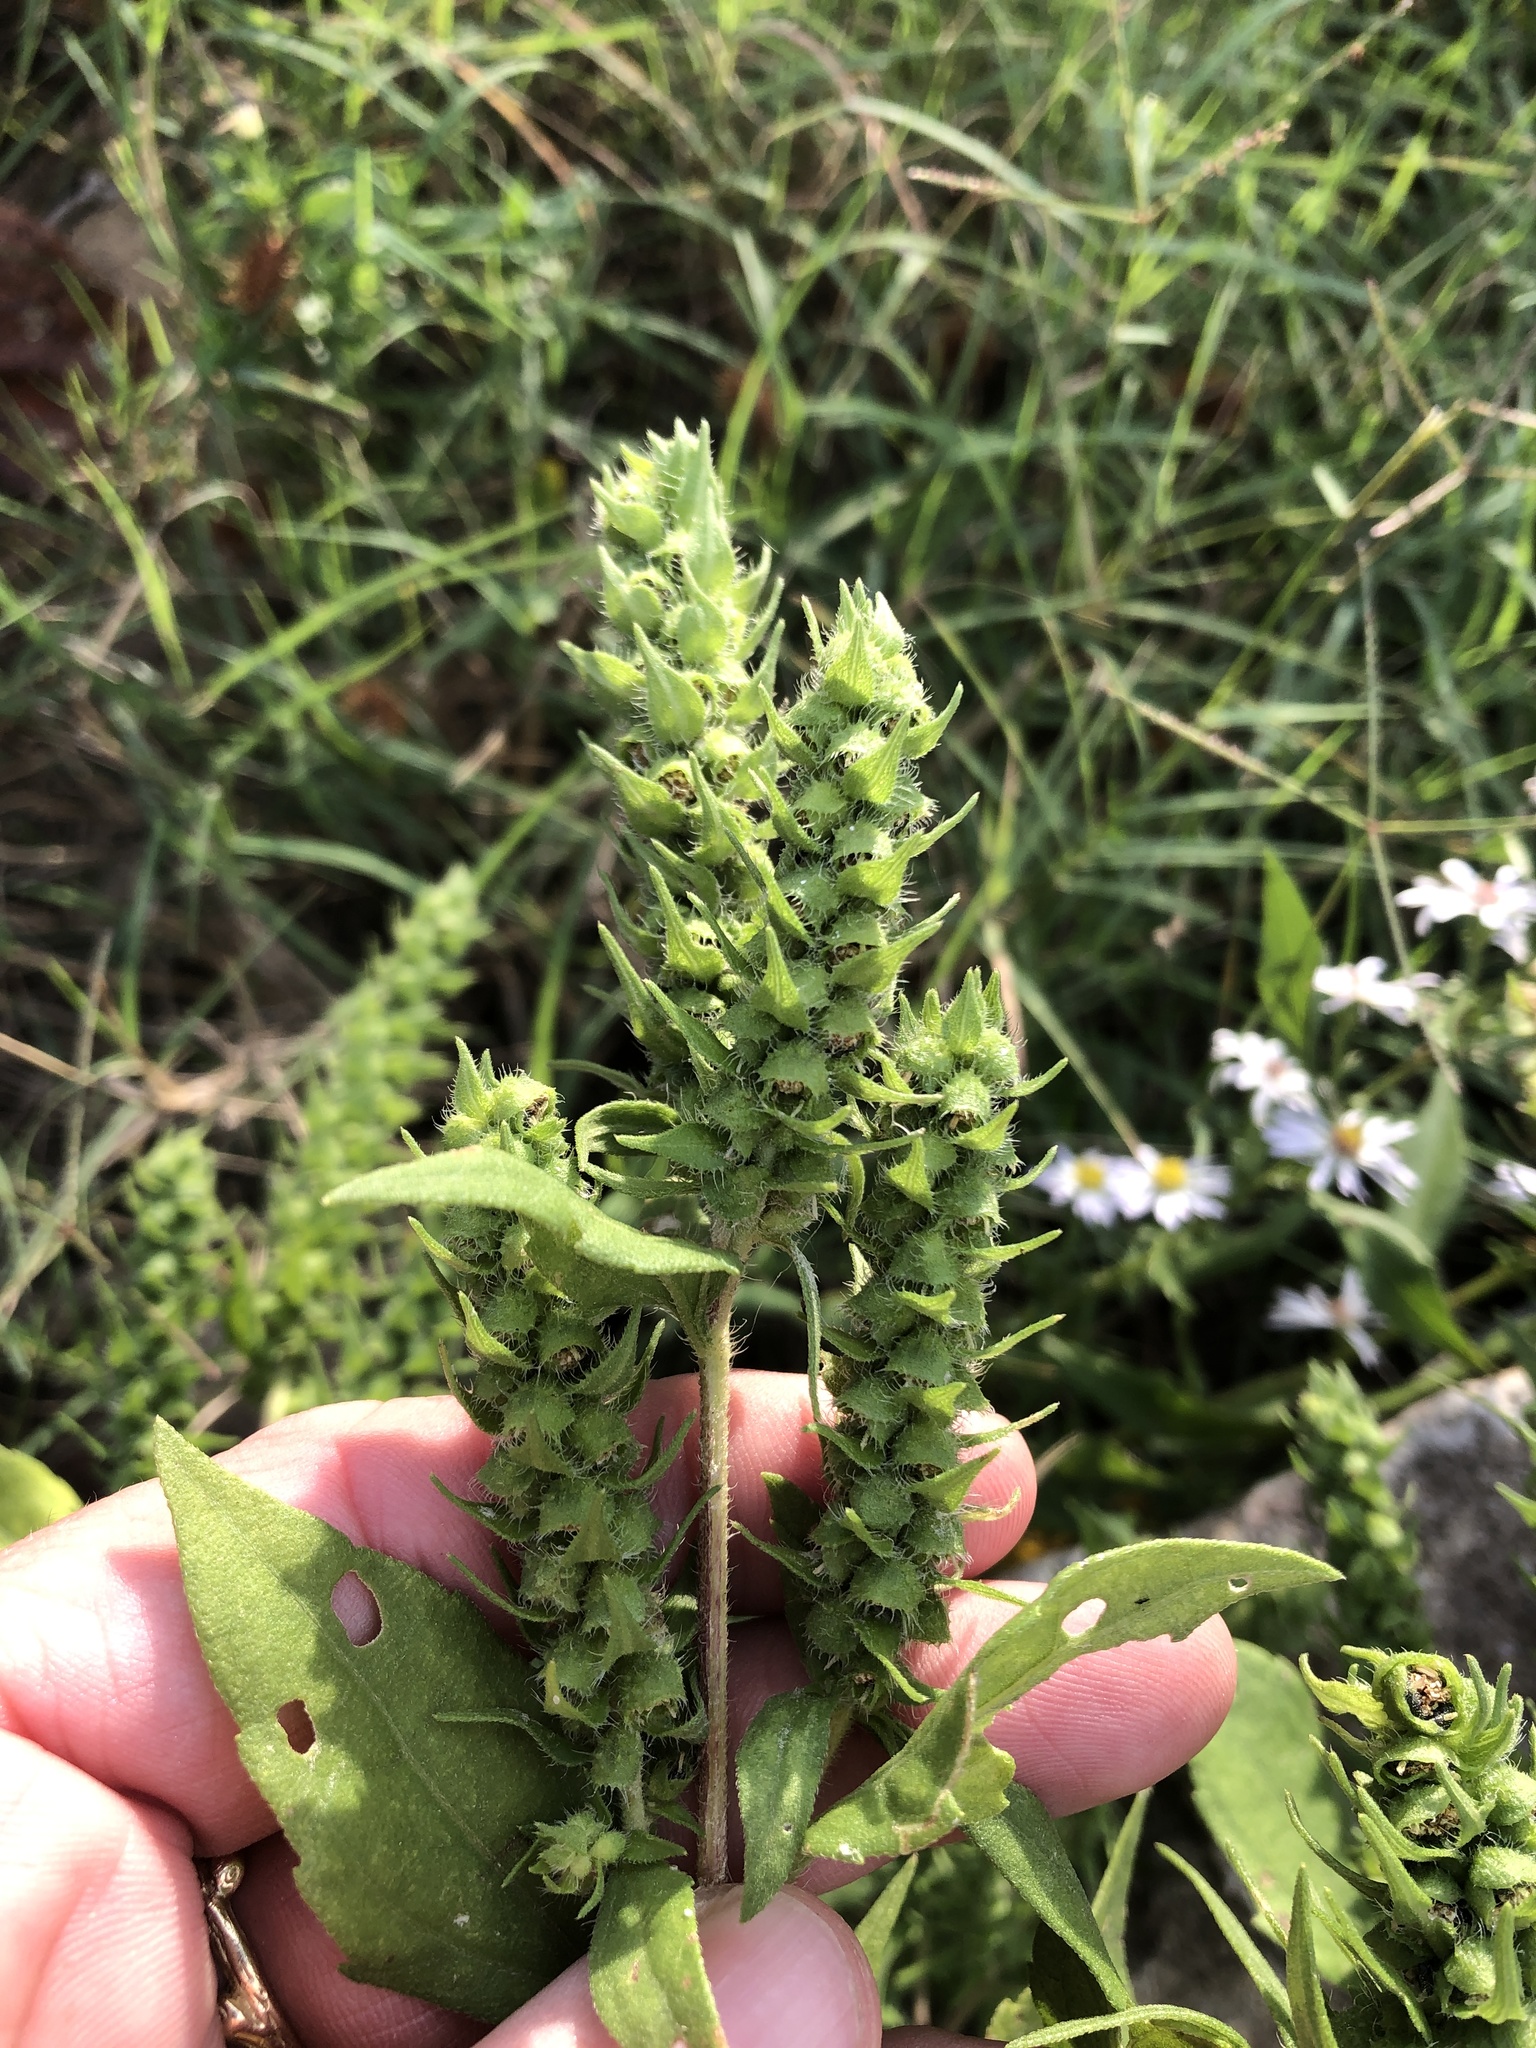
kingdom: Plantae
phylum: Tracheophyta
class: Magnoliopsida
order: Asterales
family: Asteraceae
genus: Iva
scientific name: Iva annua
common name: Marsh-elder
